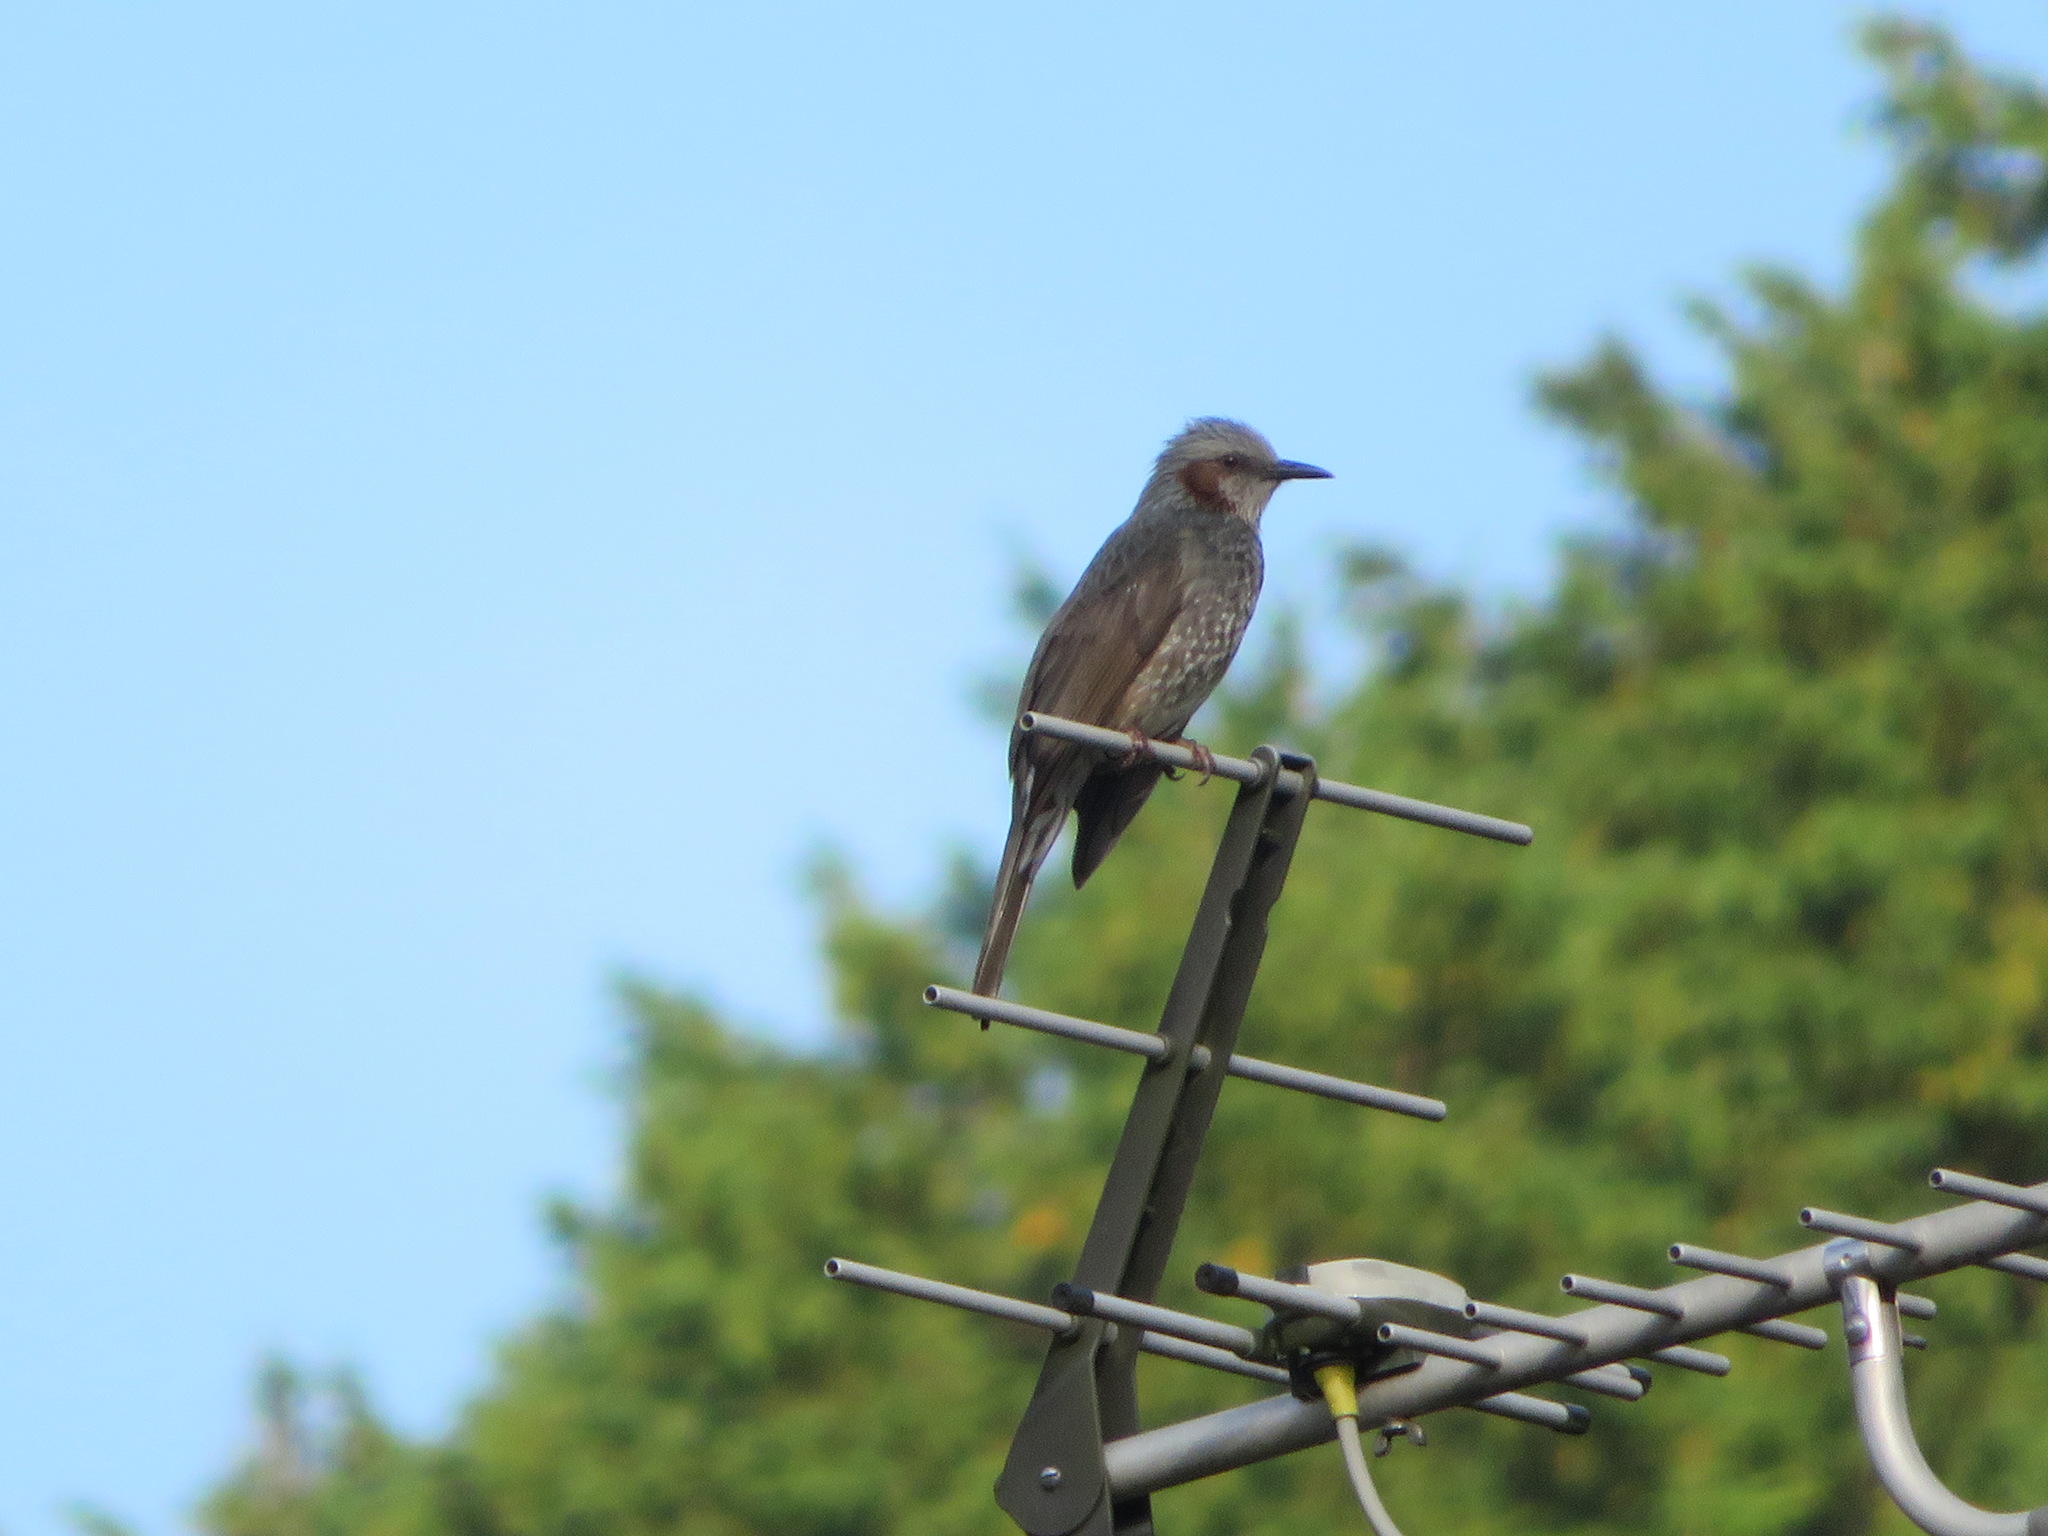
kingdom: Animalia
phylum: Chordata
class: Aves
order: Passeriformes
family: Pycnonotidae
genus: Hypsipetes
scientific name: Hypsipetes amaurotis
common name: Brown-eared bulbul
